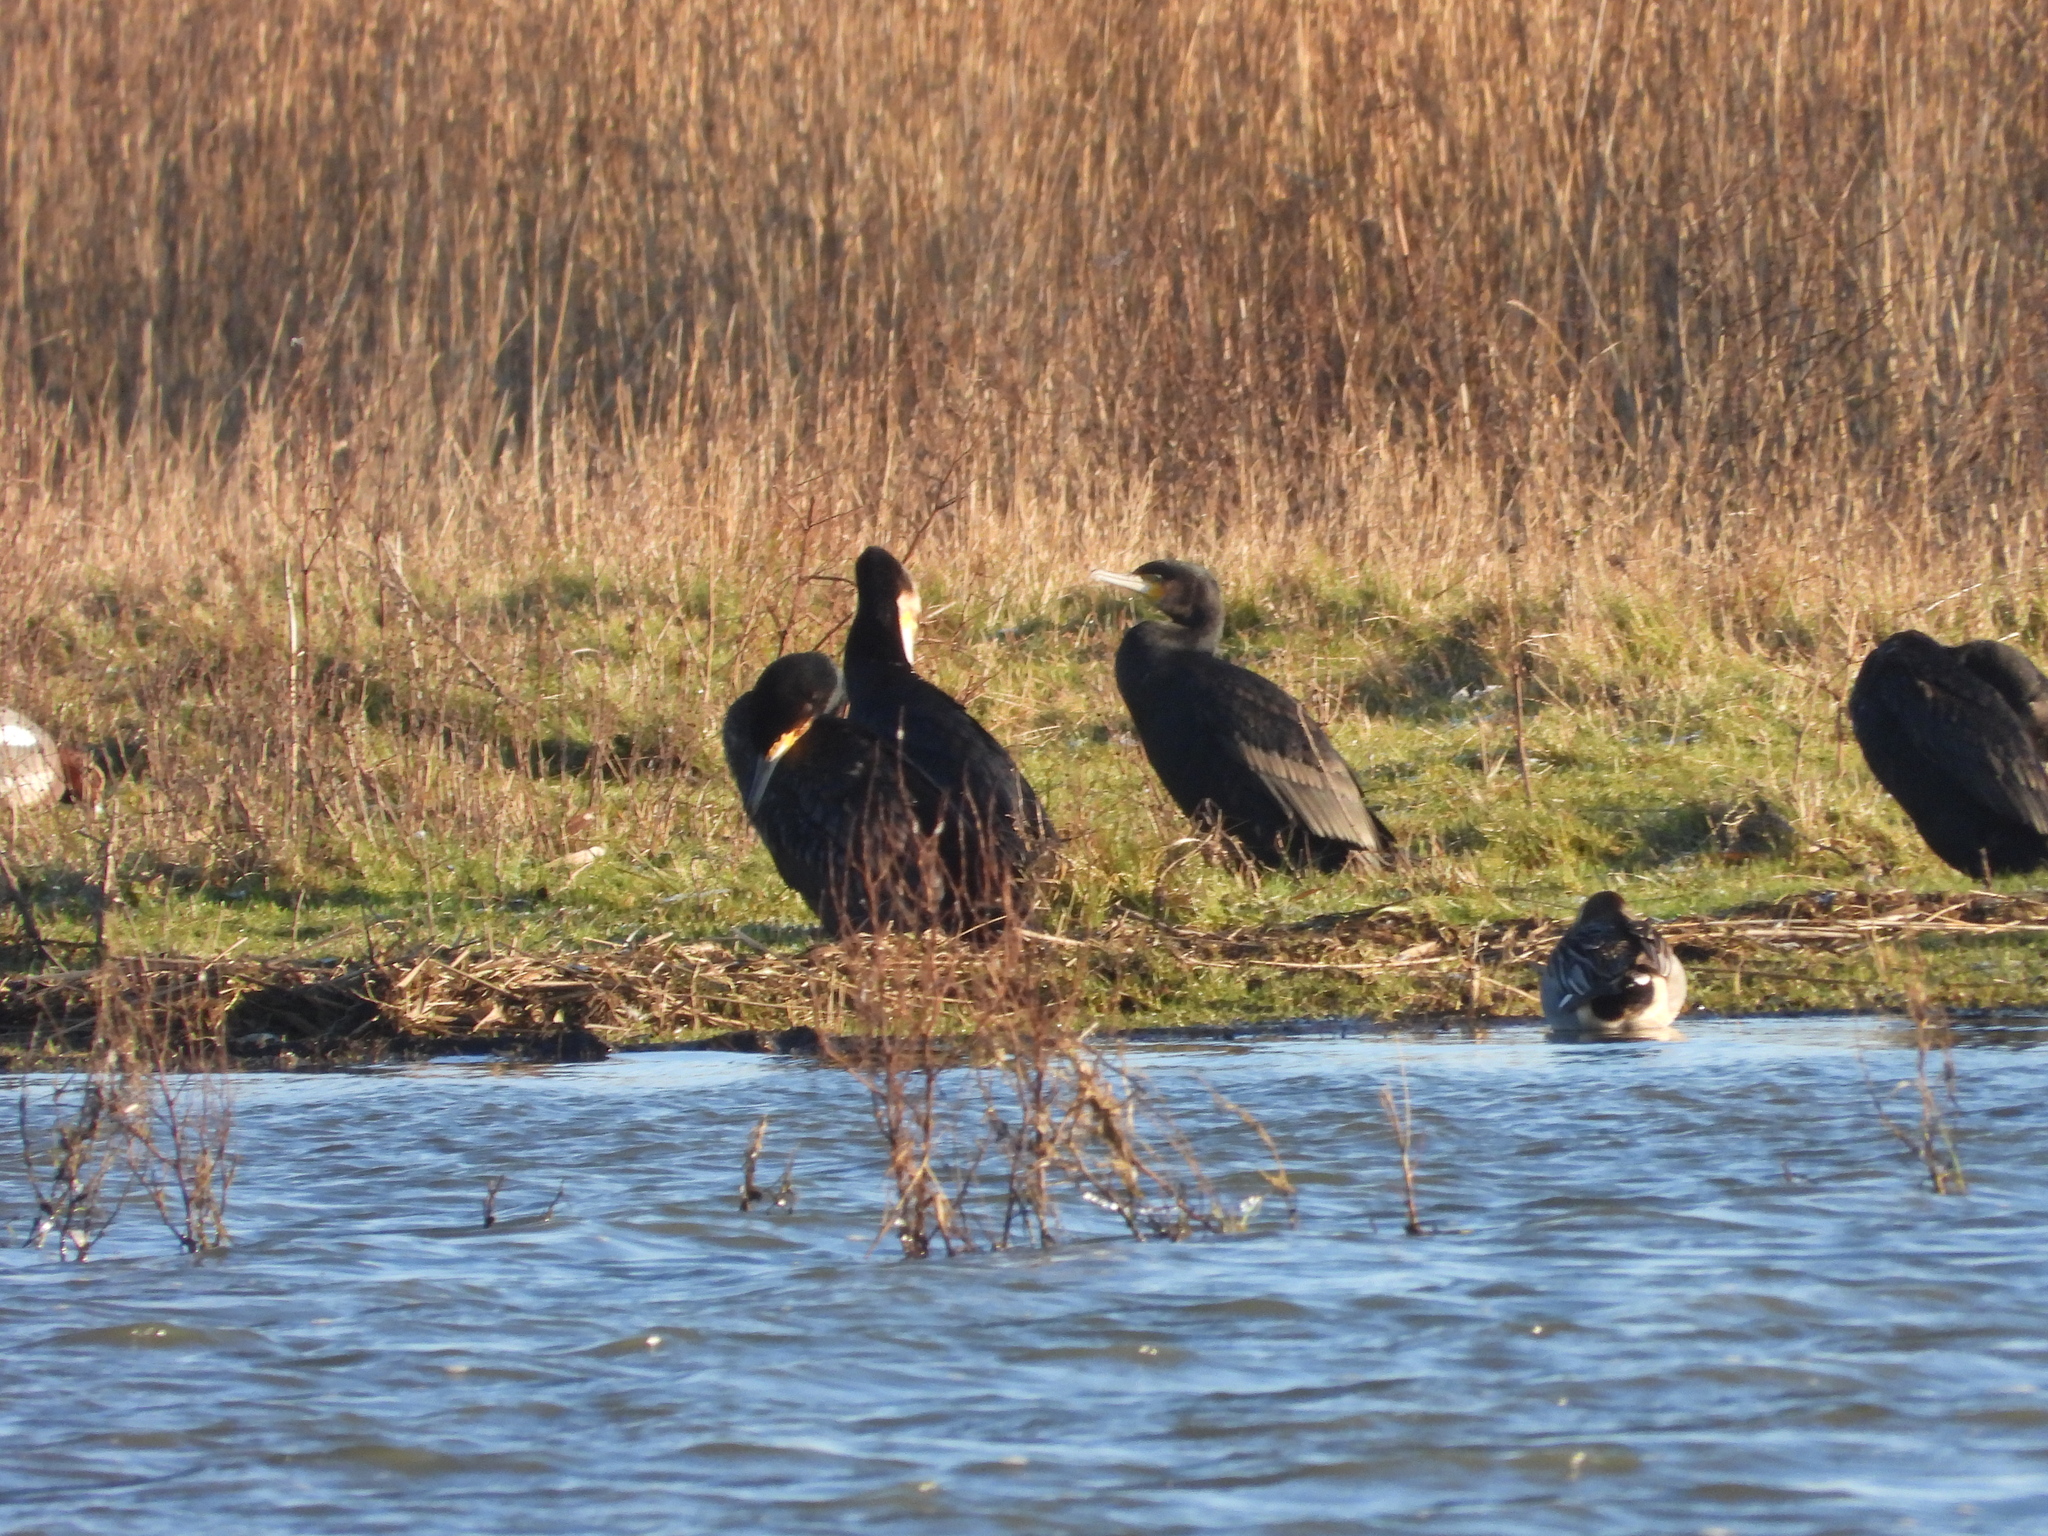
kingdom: Animalia
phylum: Chordata
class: Aves
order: Suliformes
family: Phalacrocoracidae
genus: Phalacrocorax
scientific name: Phalacrocorax carbo
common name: Great cormorant
